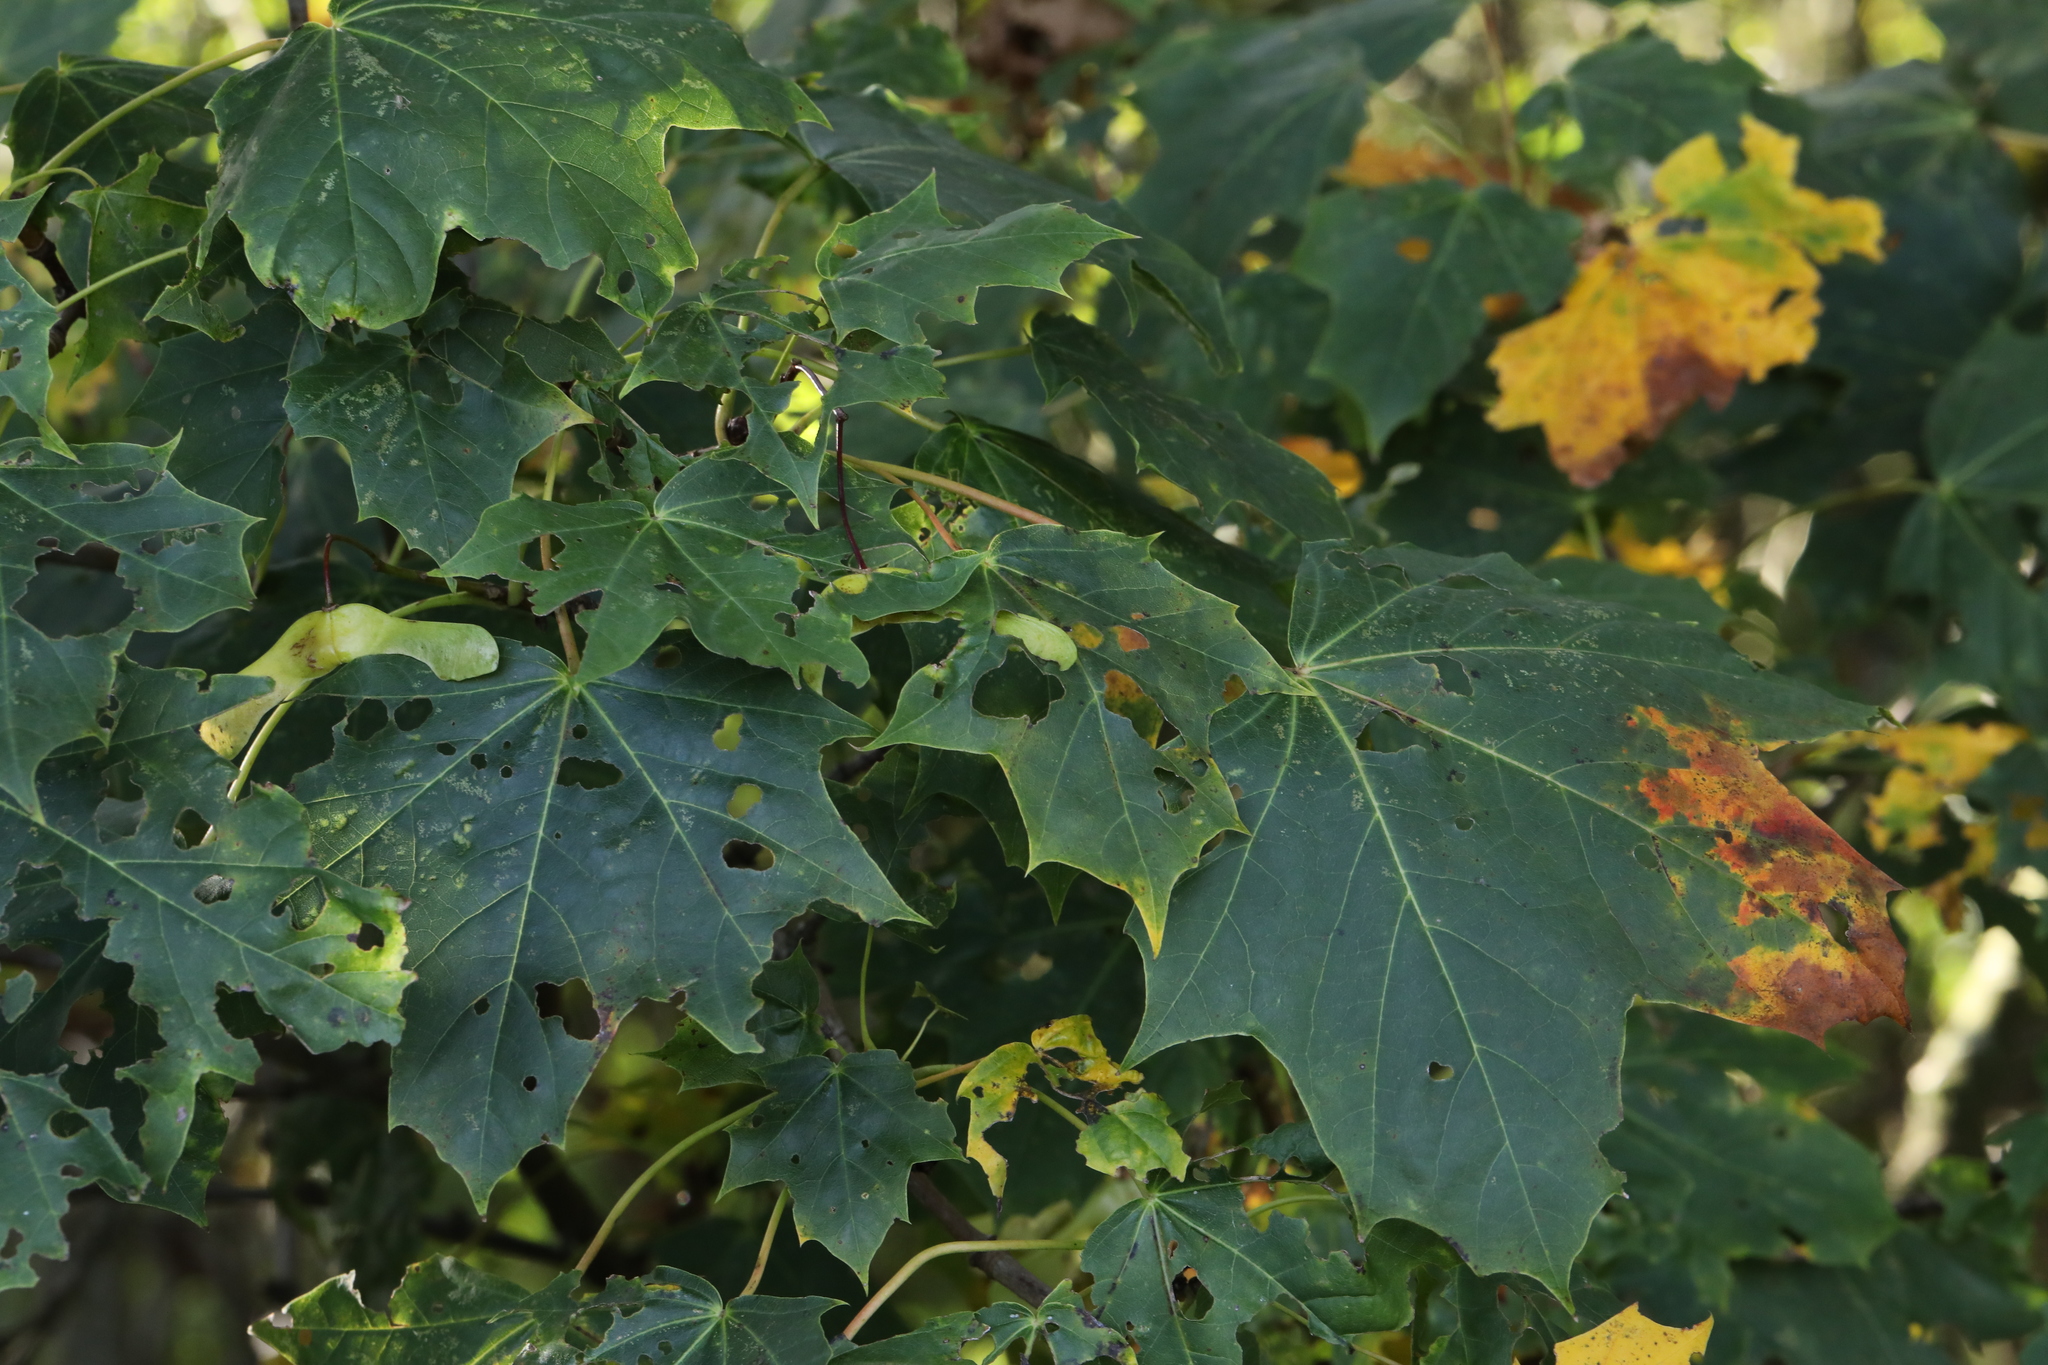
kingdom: Plantae
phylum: Tracheophyta
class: Magnoliopsida
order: Sapindales
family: Sapindaceae
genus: Acer
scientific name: Acer platanoides
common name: Norway maple
